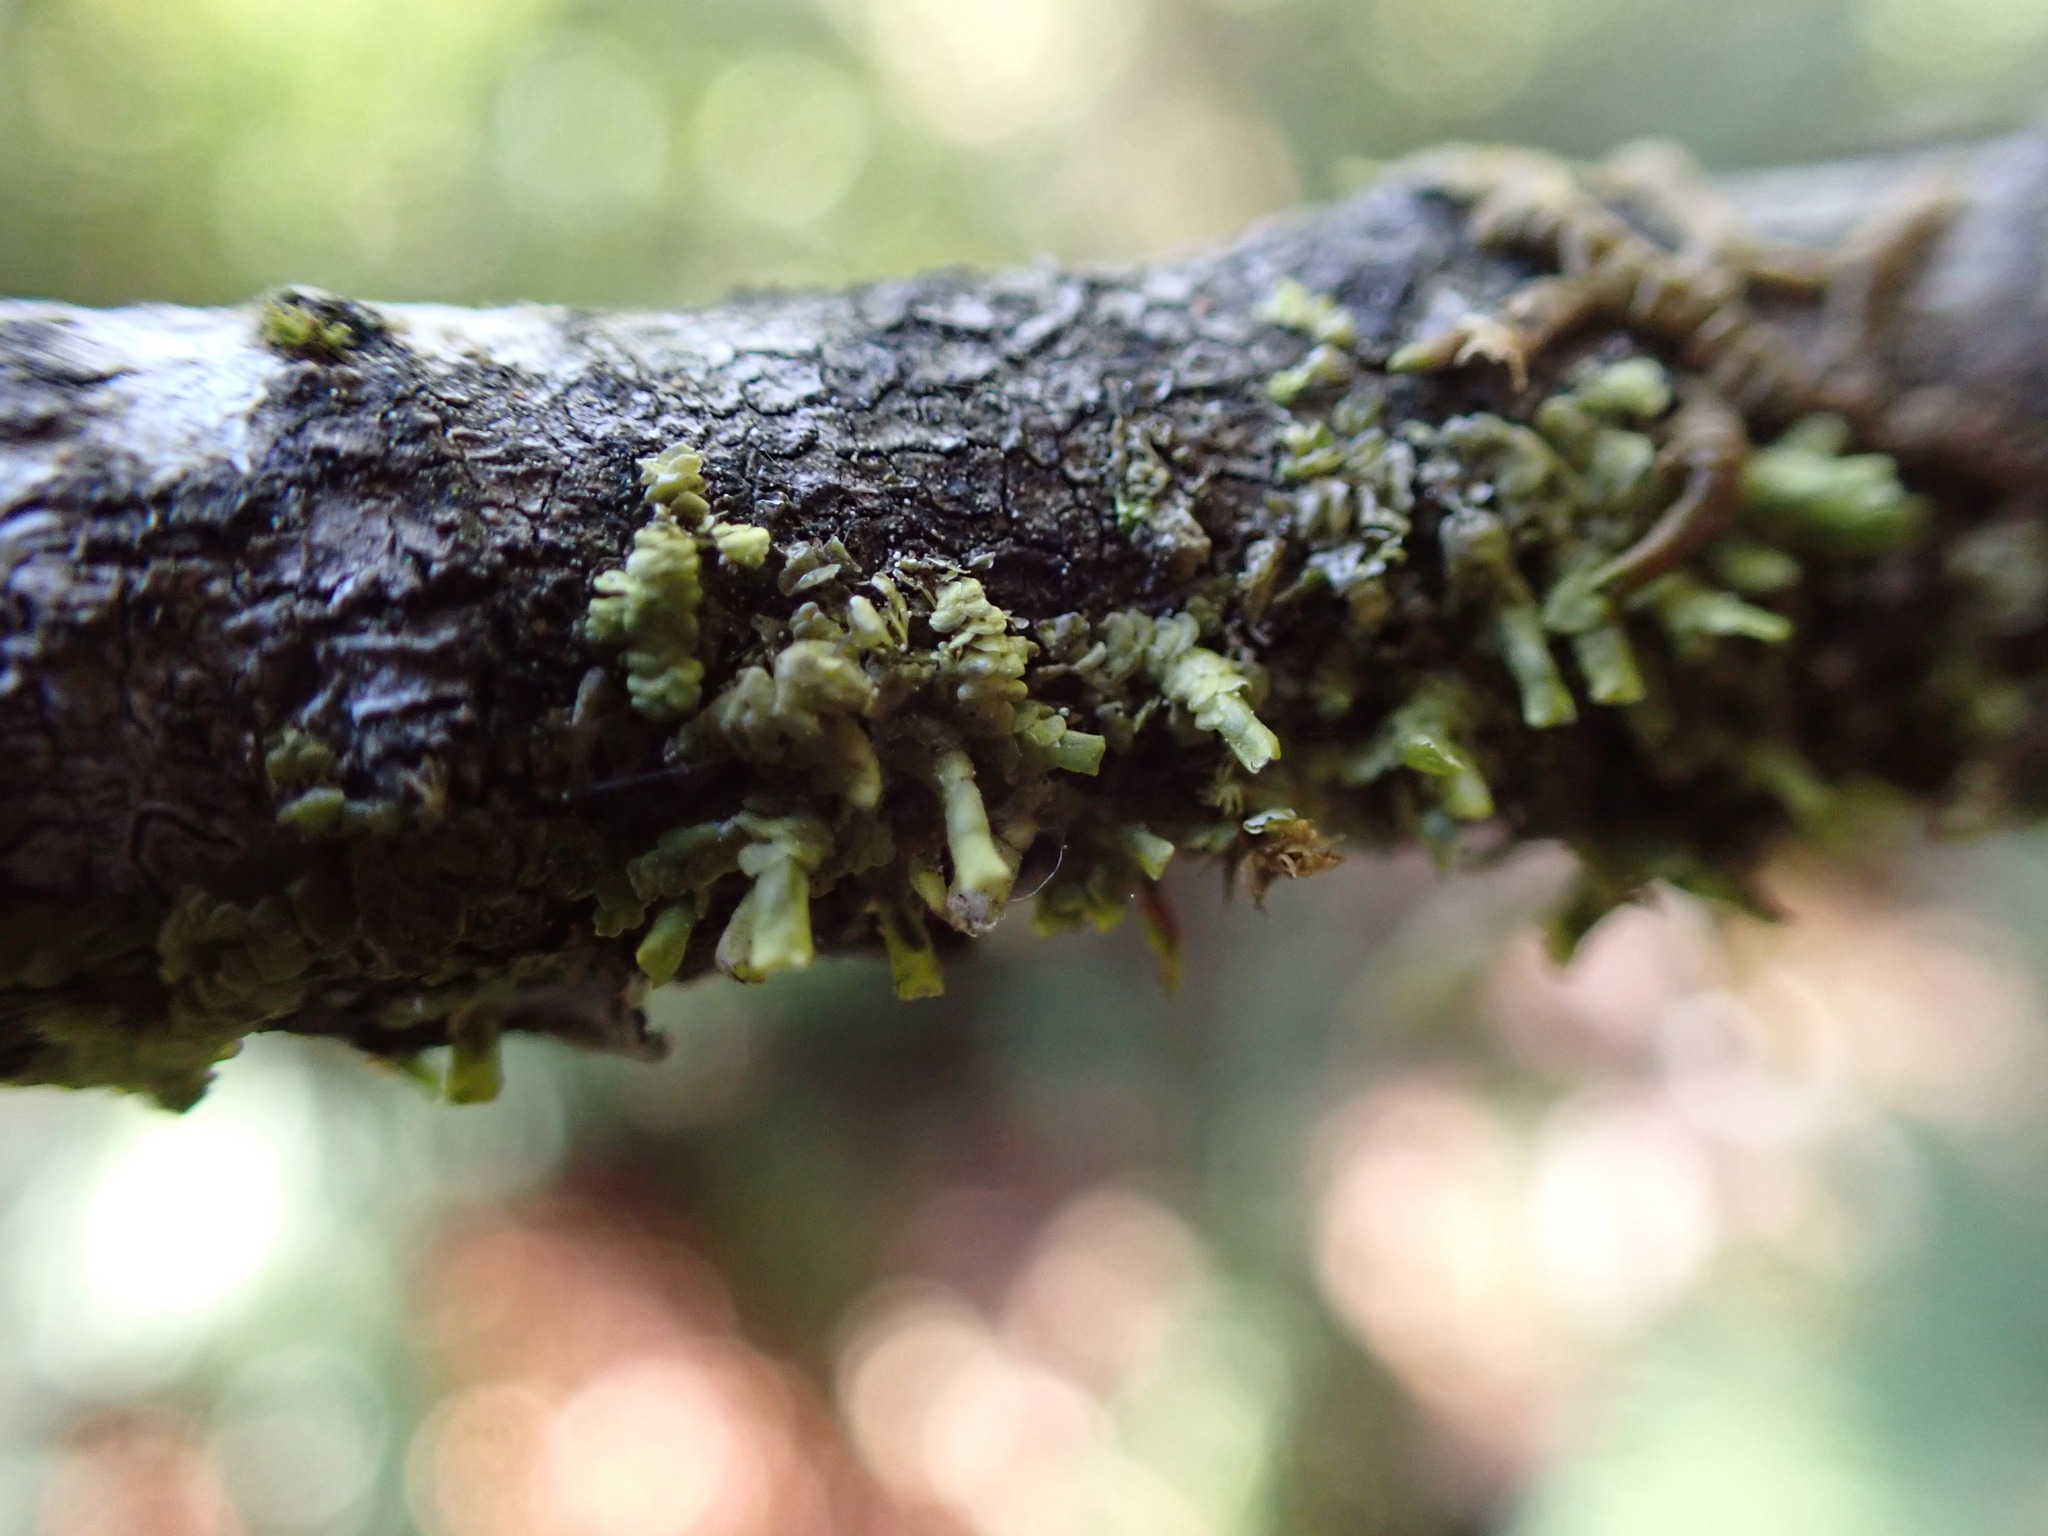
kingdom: Plantae
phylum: Marchantiophyta
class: Jungermanniopsida
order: Porellales
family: Radulaceae
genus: Radula
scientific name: Radula complanata
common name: Flat-leaved scalewort
